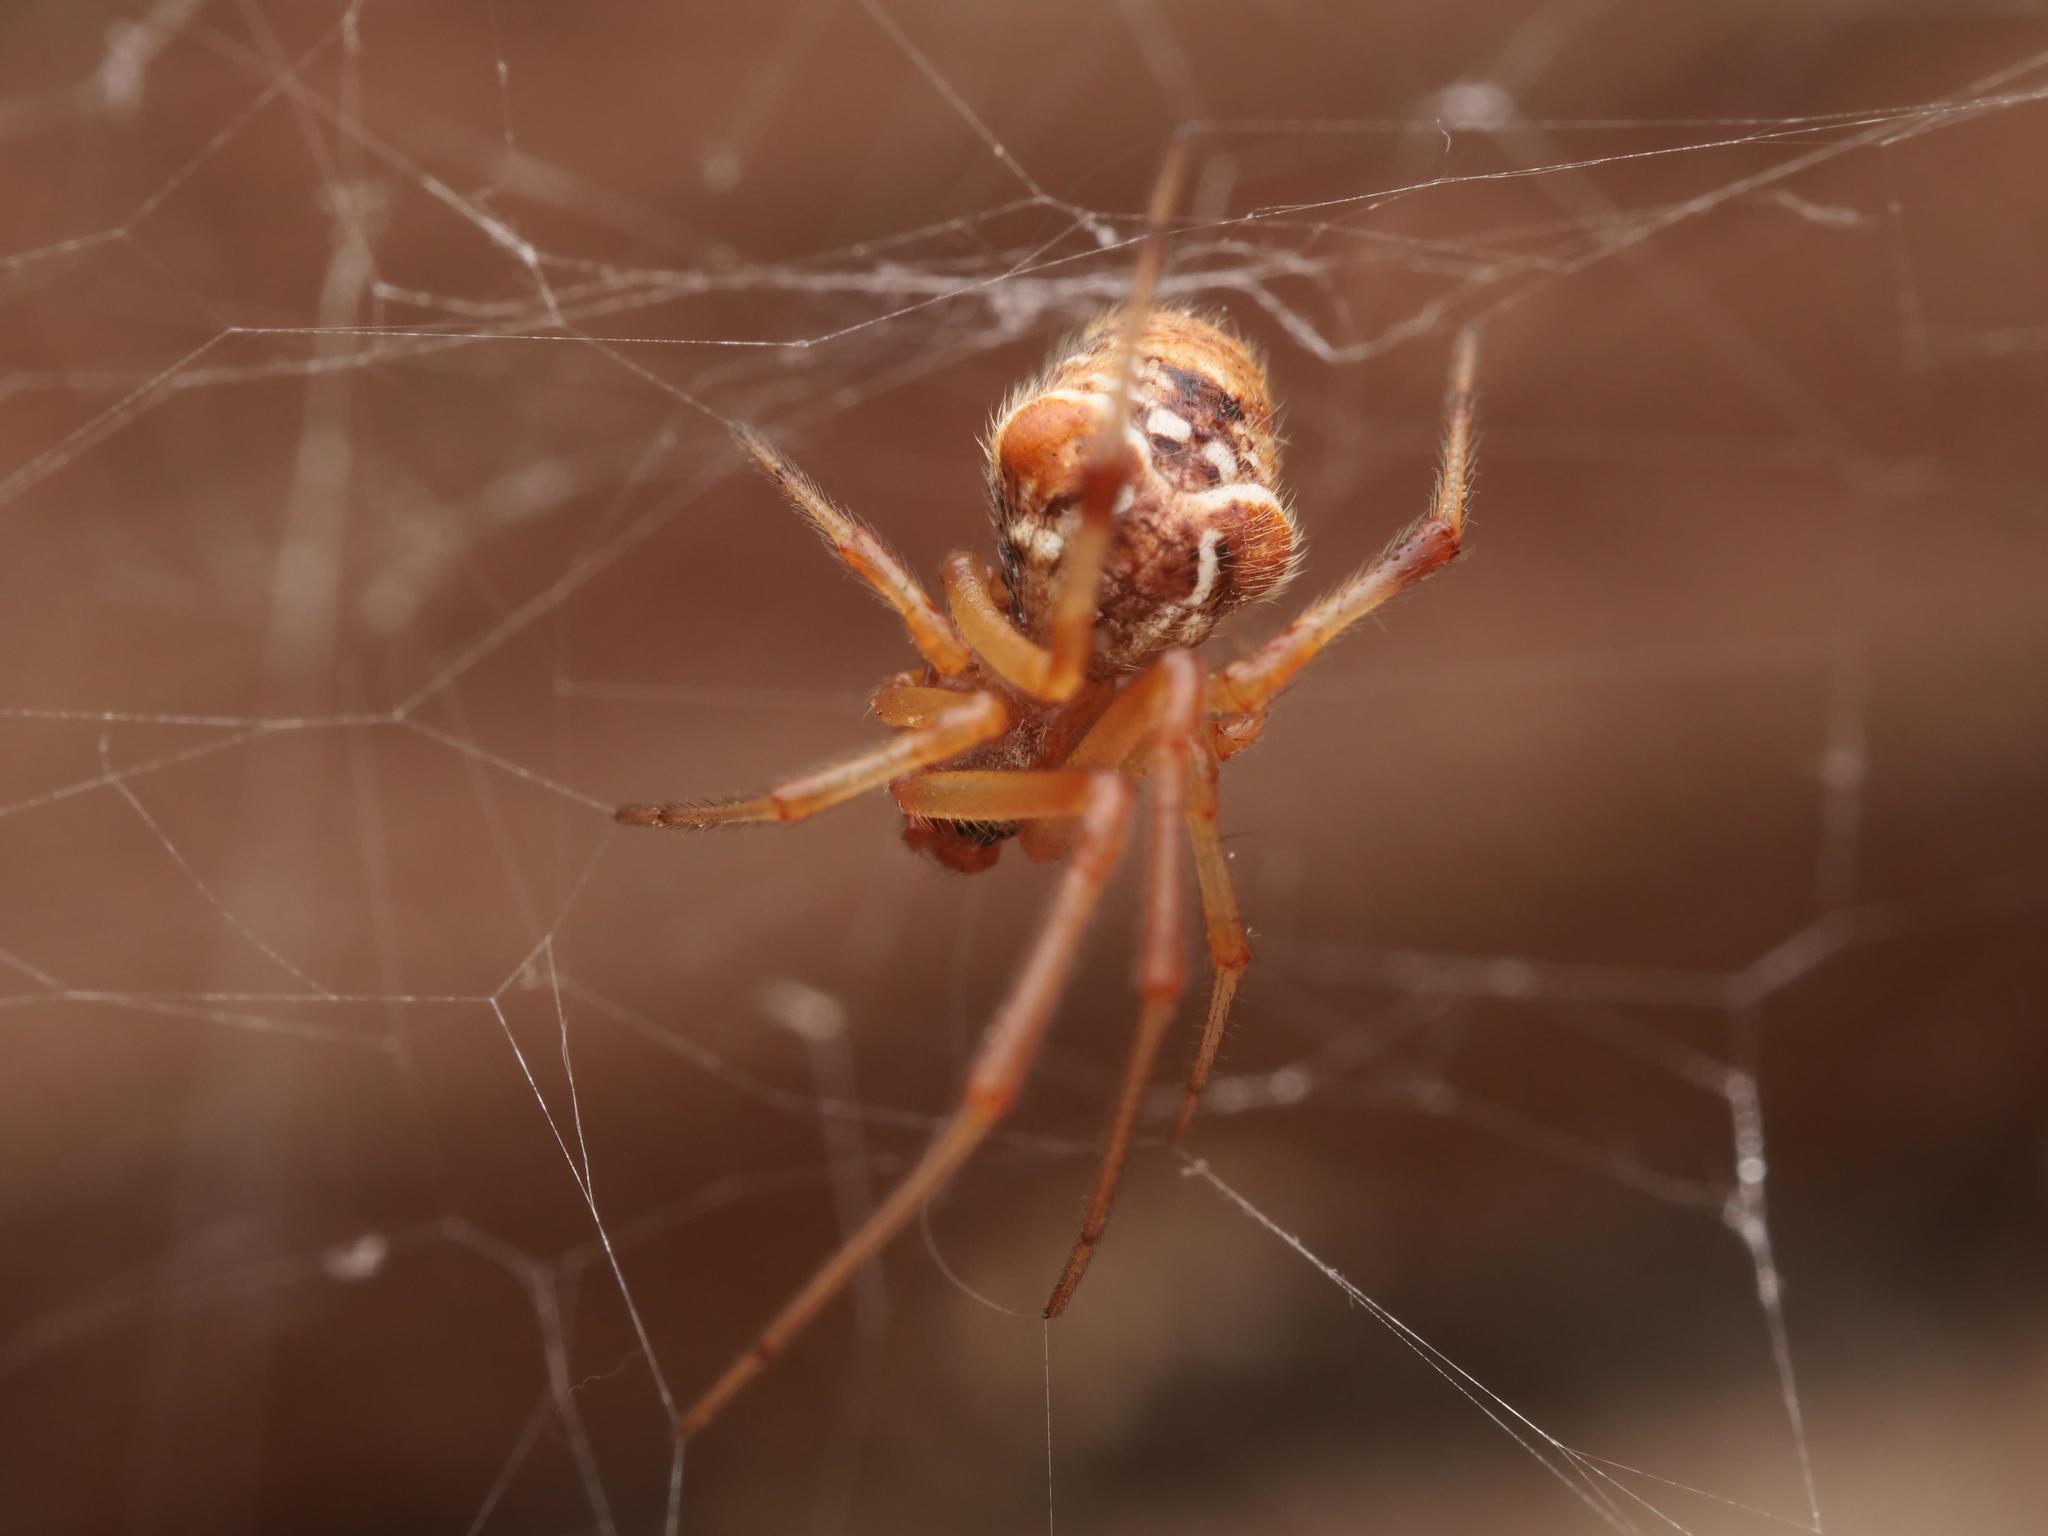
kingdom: Animalia
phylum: Arthropoda
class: Arachnida
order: Araneae
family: Theridiidae
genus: Parasteatoda
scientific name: Parasteatoda lunata
